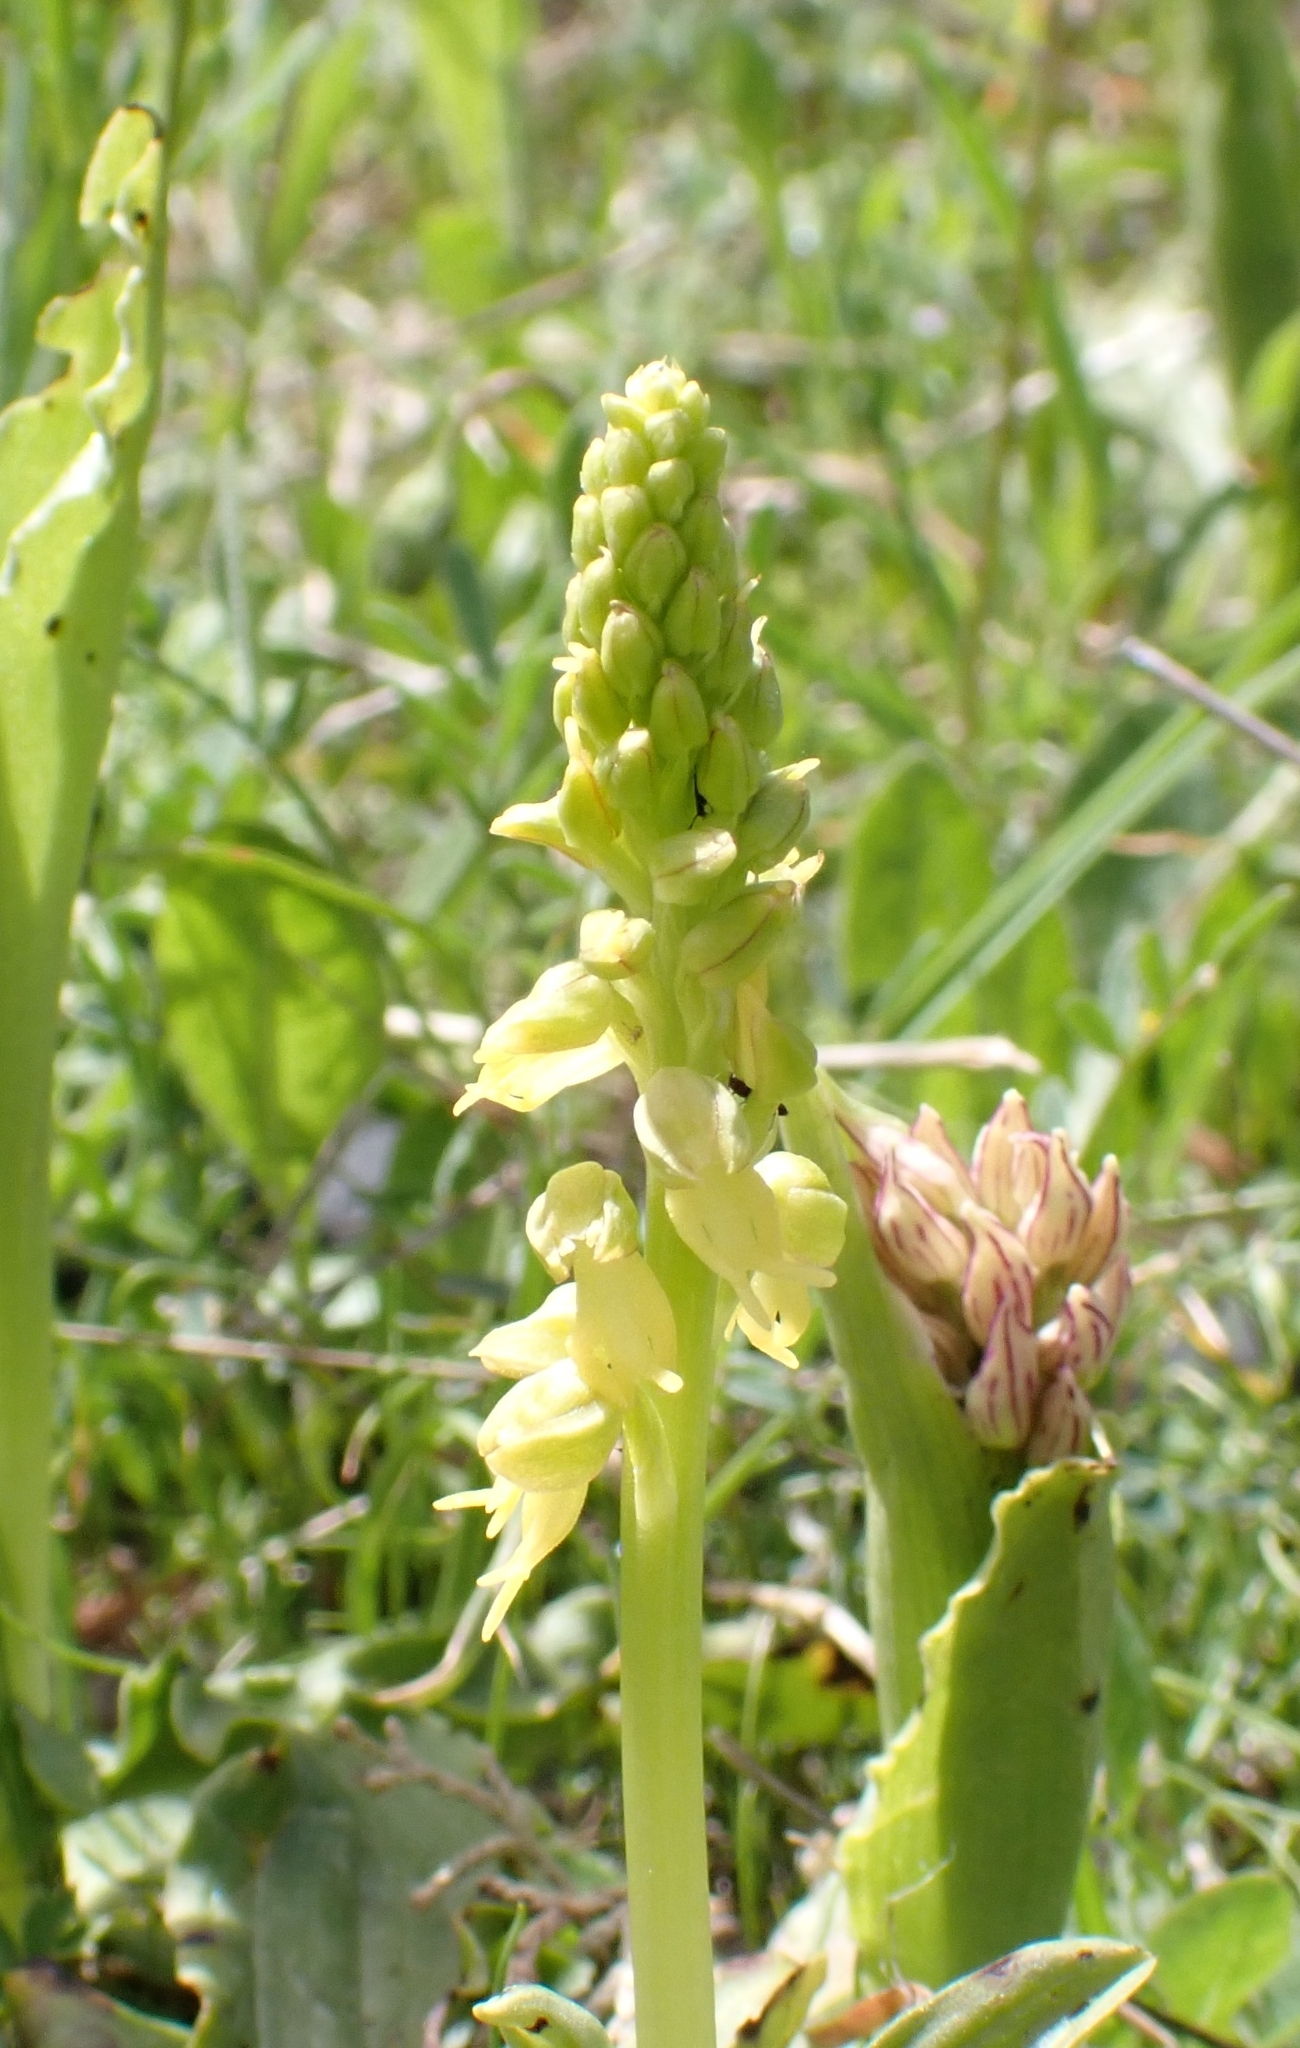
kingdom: Plantae
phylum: Tracheophyta
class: Liliopsida
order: Asparagales
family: Orchidaceae
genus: Orchis
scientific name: Orchis anthropophora
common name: Man orchid
